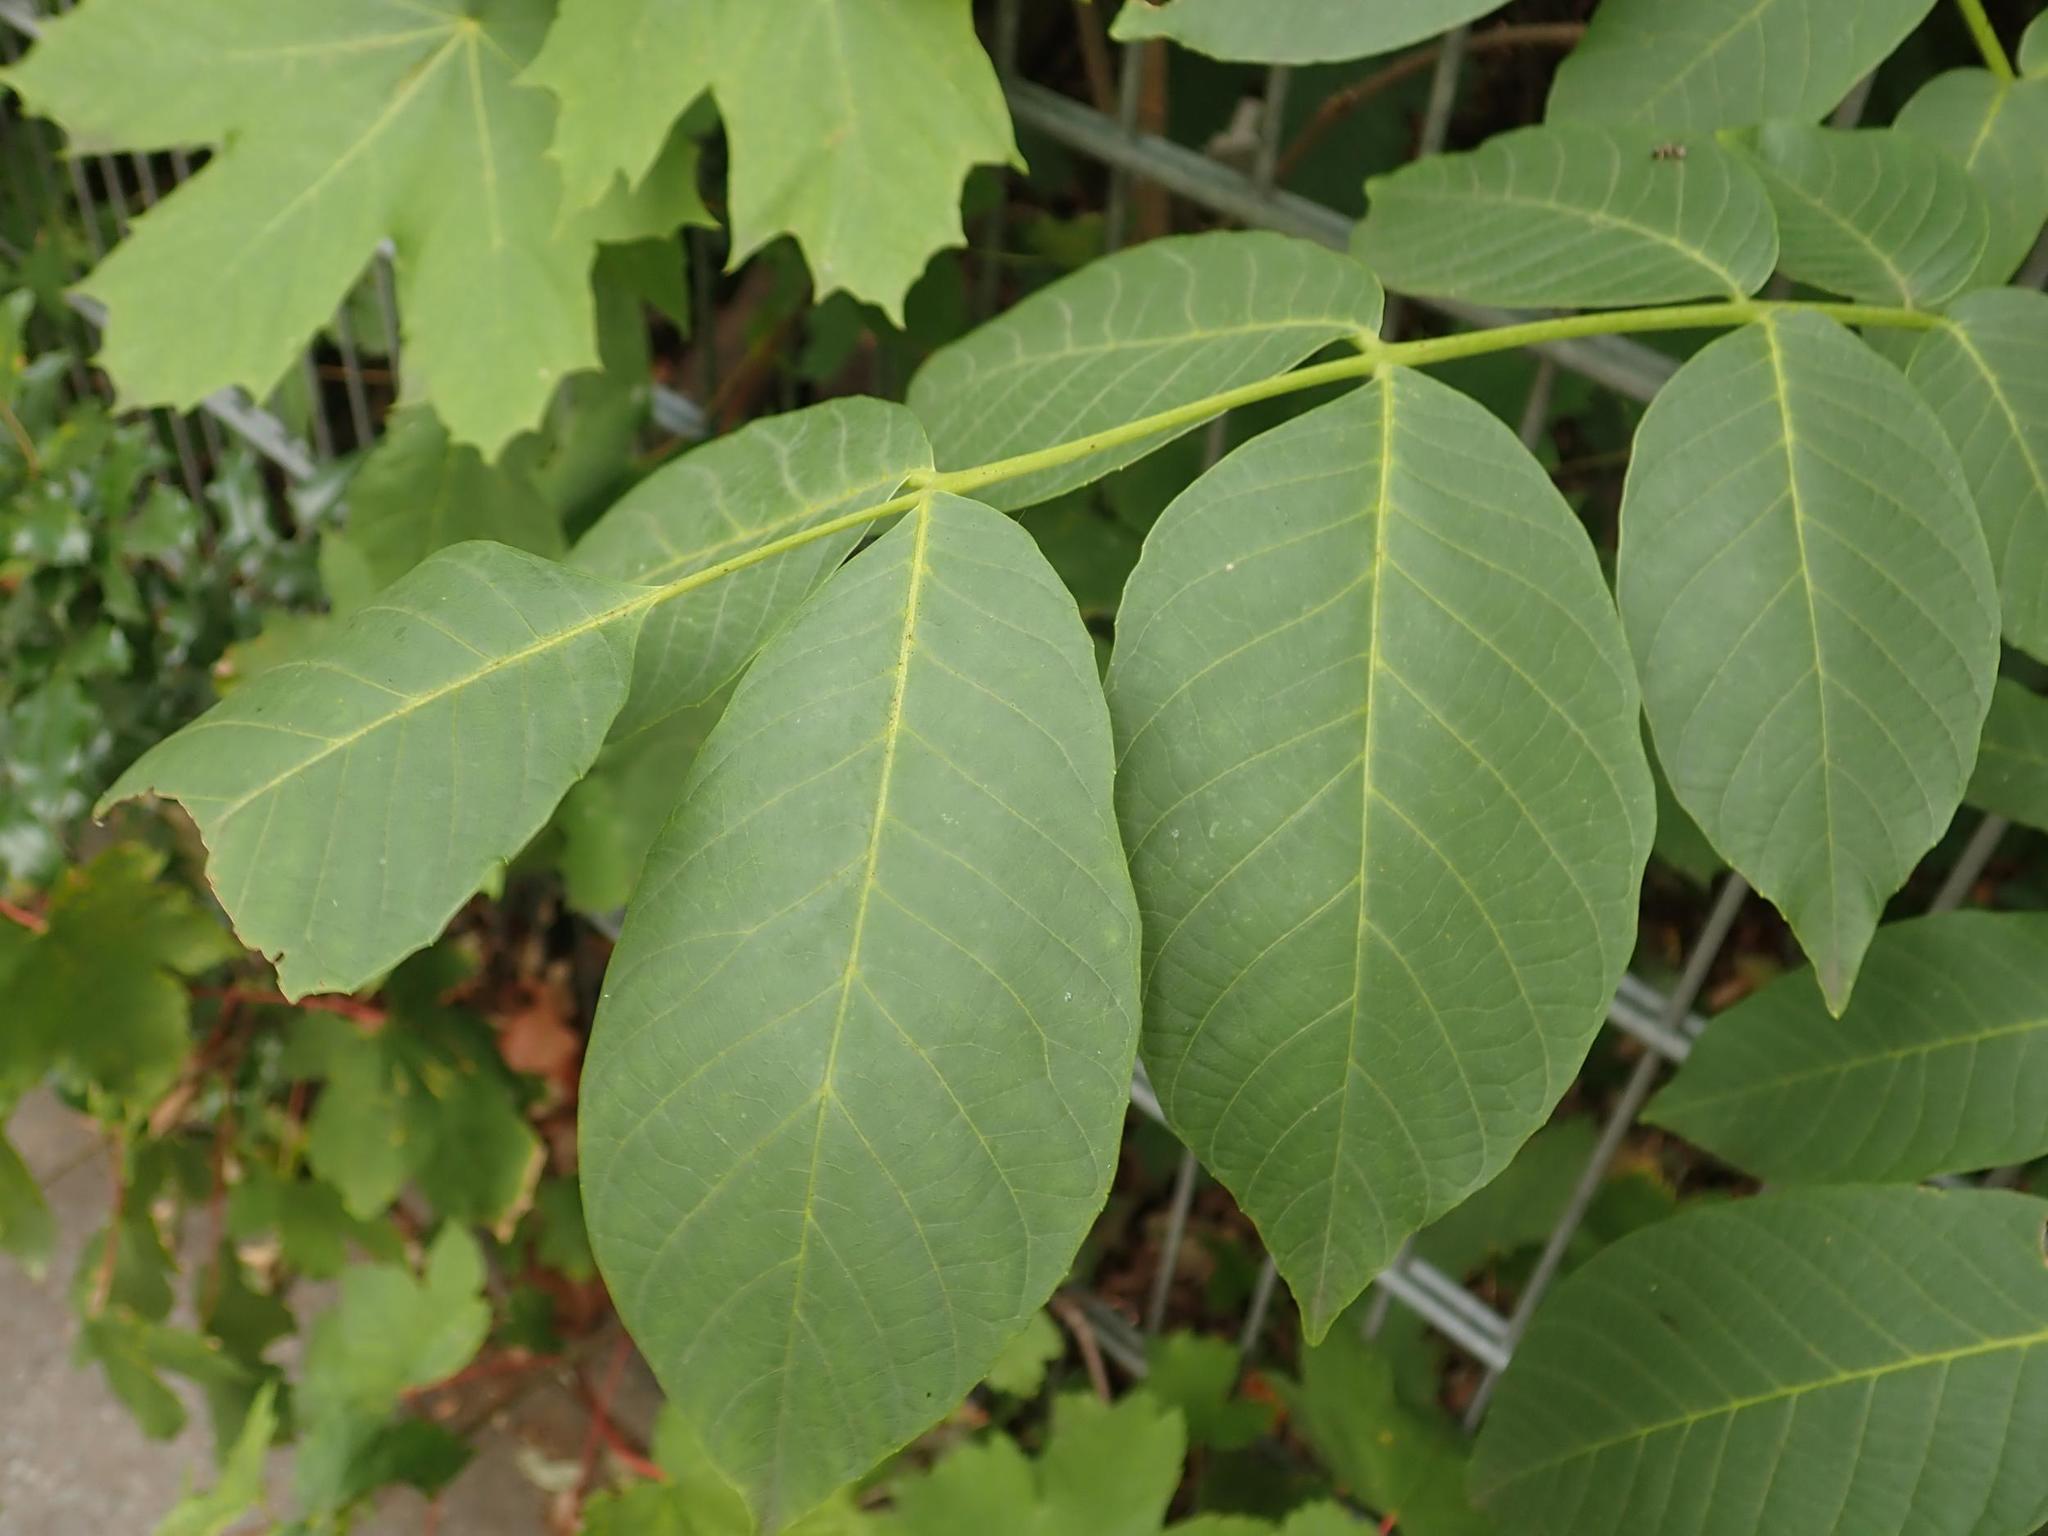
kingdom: Plantae
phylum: Tracheophyta
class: Magnoliopsida
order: Fagales
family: Juglandaceae
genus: Juglans
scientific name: Juglans regia
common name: Walnut
